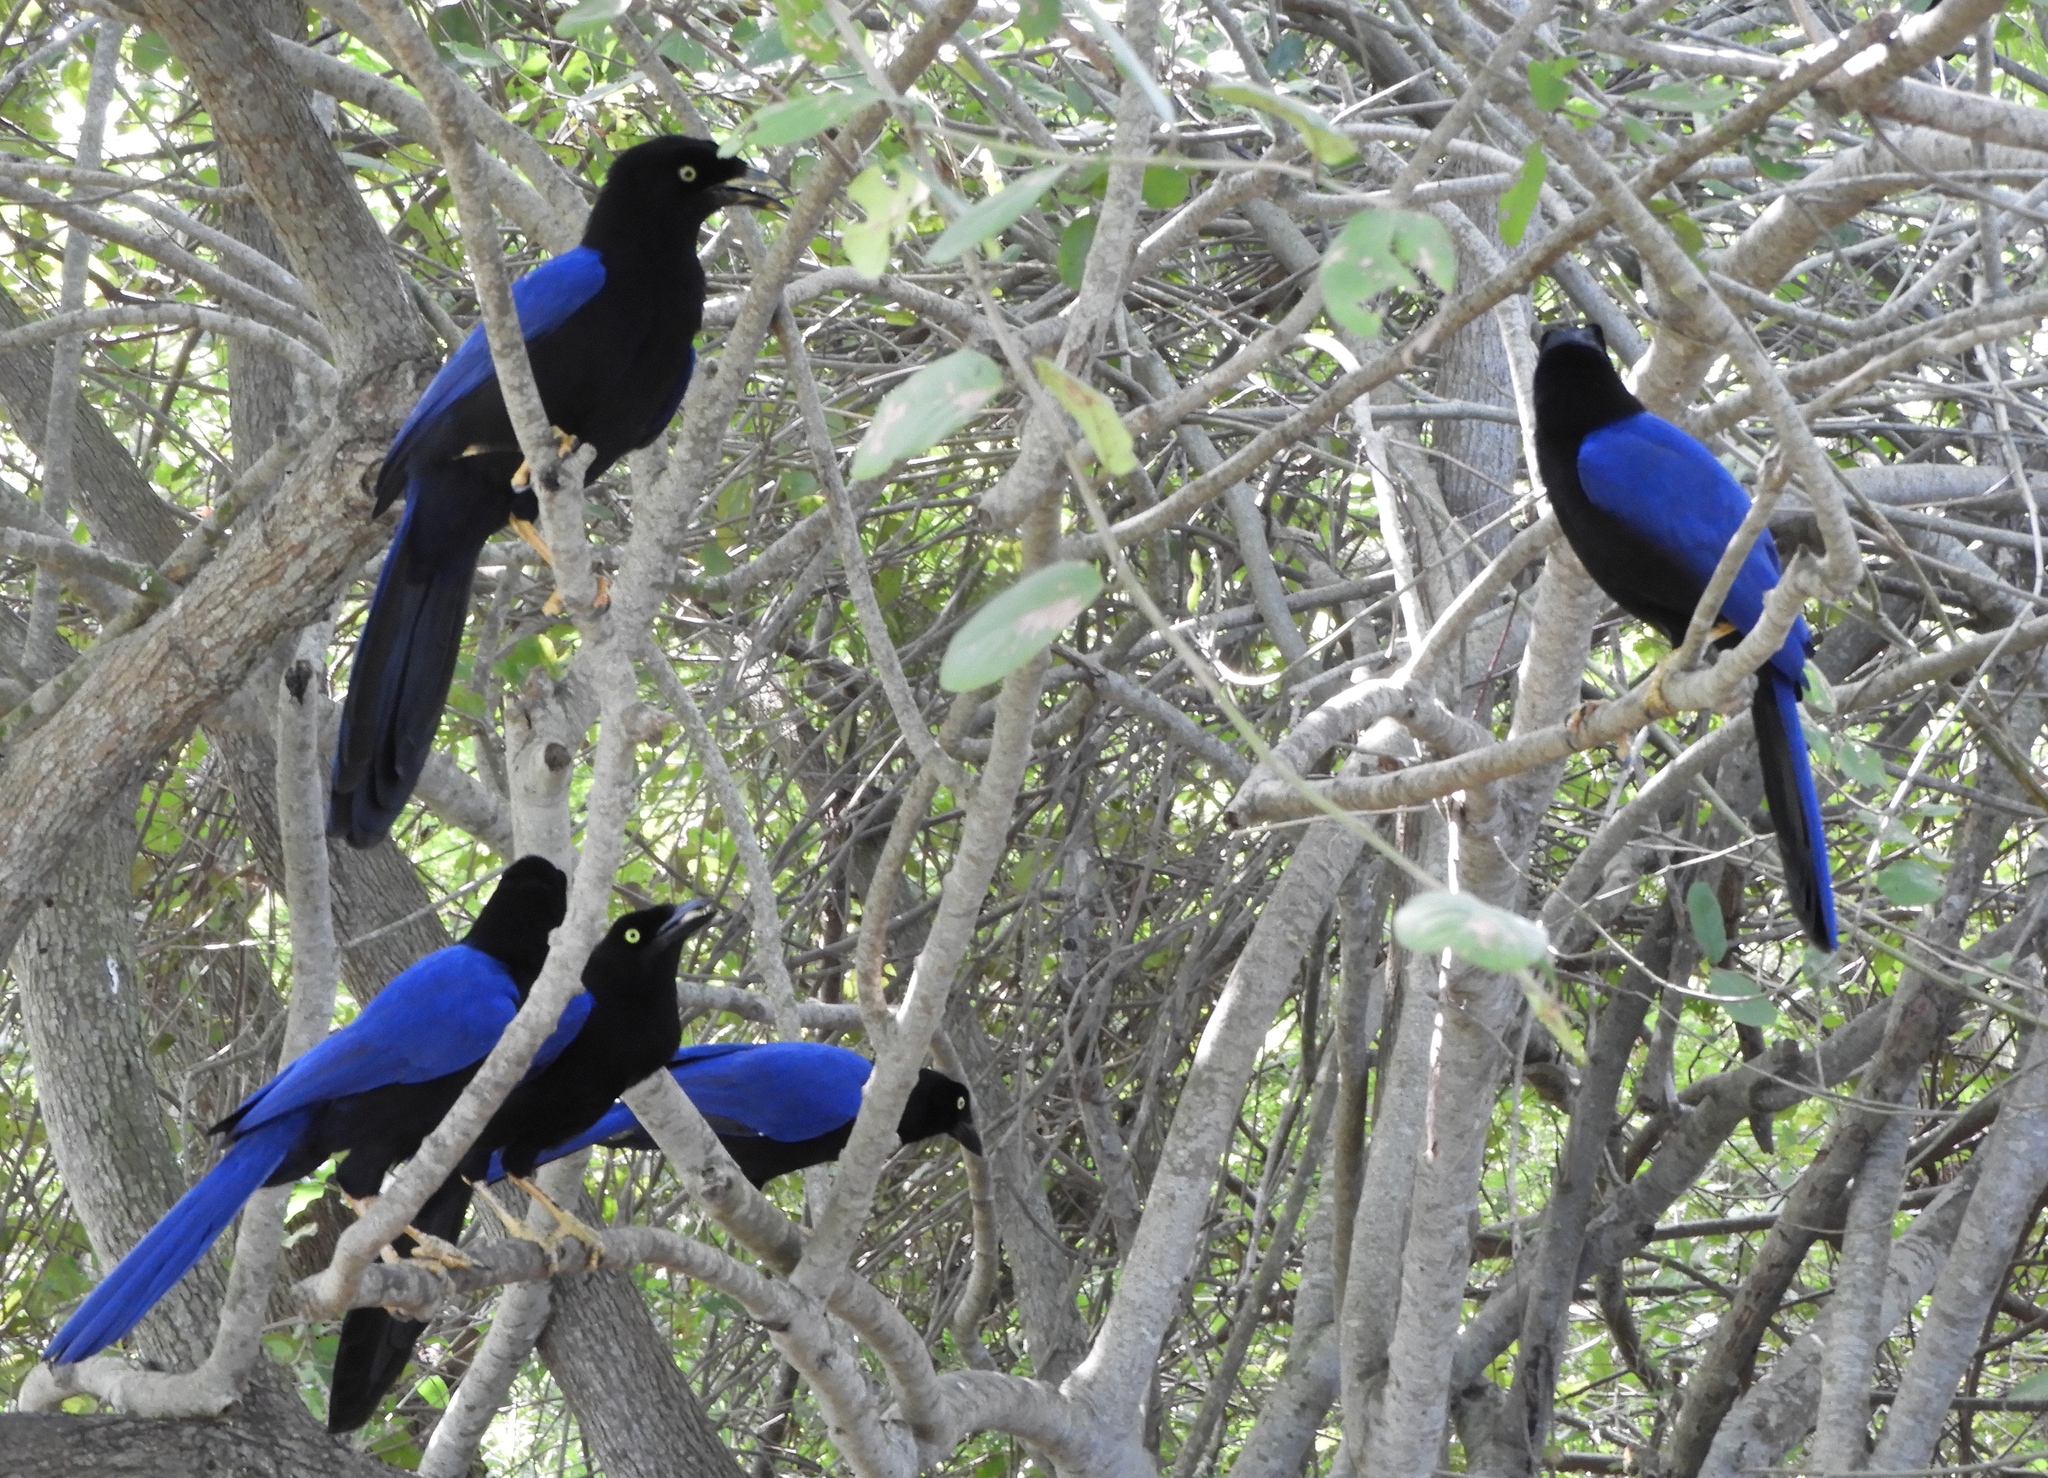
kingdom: Animalia
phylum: Chordata
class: Aves
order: Passeriformes
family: Corvidae
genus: Cyanocorax
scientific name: Cyanocorax beecheii
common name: Purplish-backed jay
